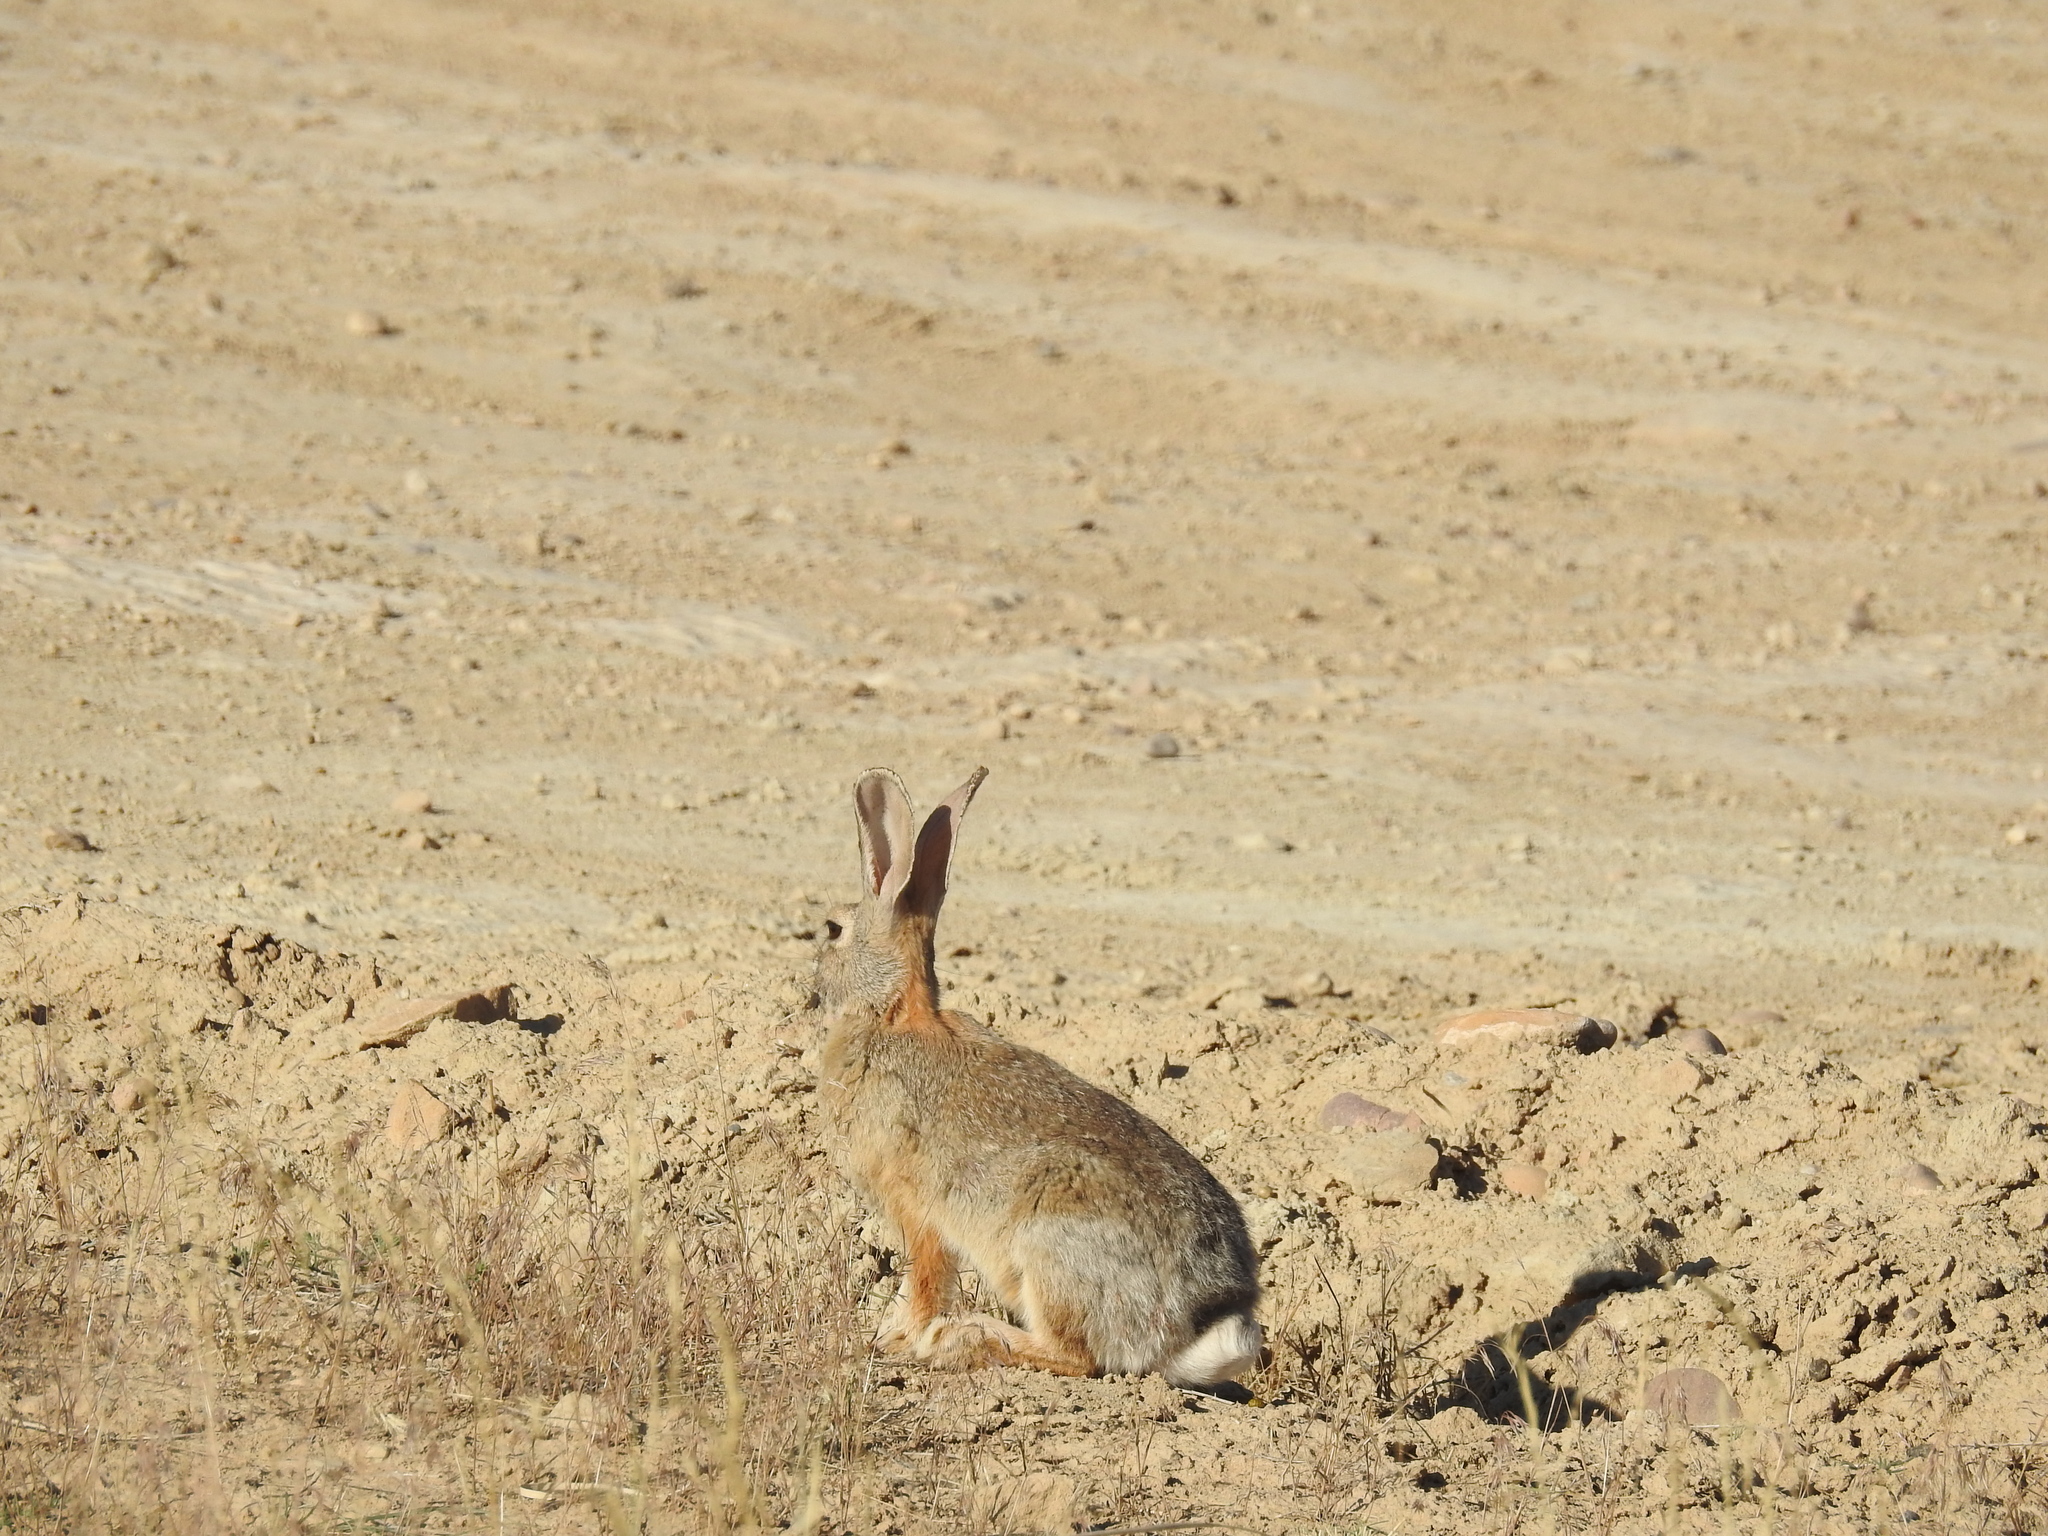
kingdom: Animalia
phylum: Chordata
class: Mammalia
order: Lagomorpha
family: Leporidae
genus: Sylvilagus
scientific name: Sylvilagus audubonii
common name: Desert cottontail
